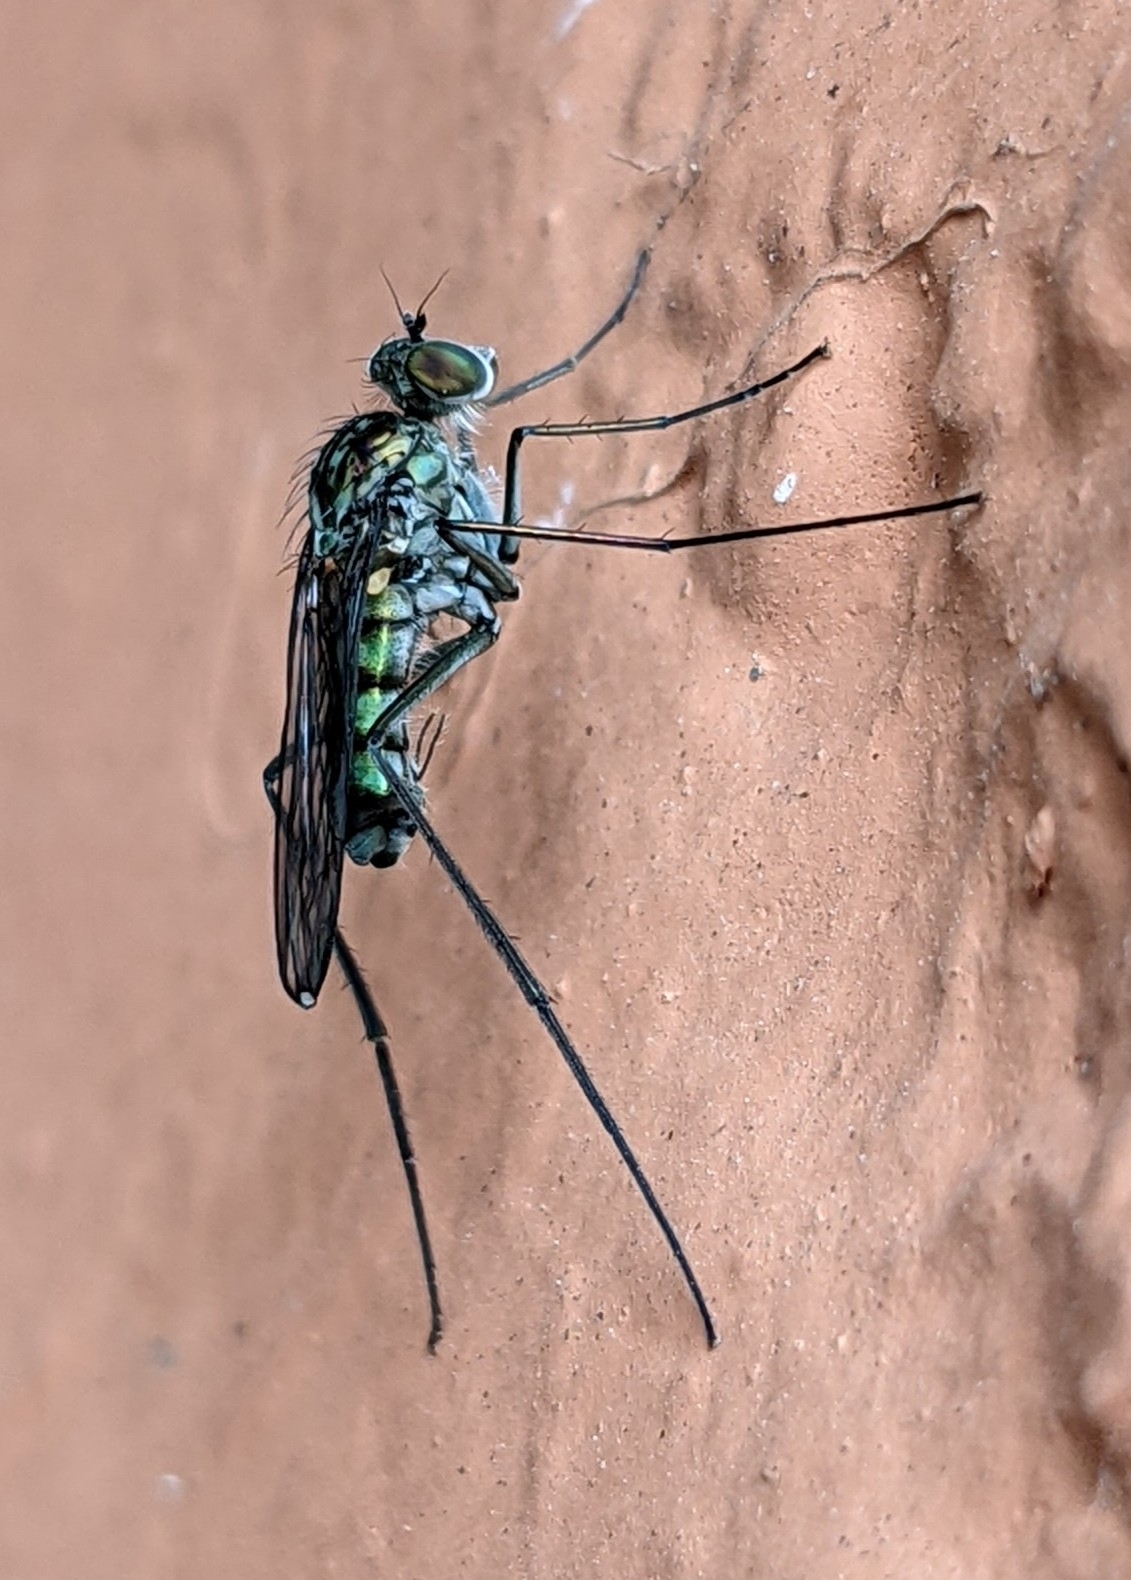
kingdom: Animalia
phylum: Arthropoda
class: Insecta
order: Diptera
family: Dolichopodidae
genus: Liancalus
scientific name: Liancalus virens
